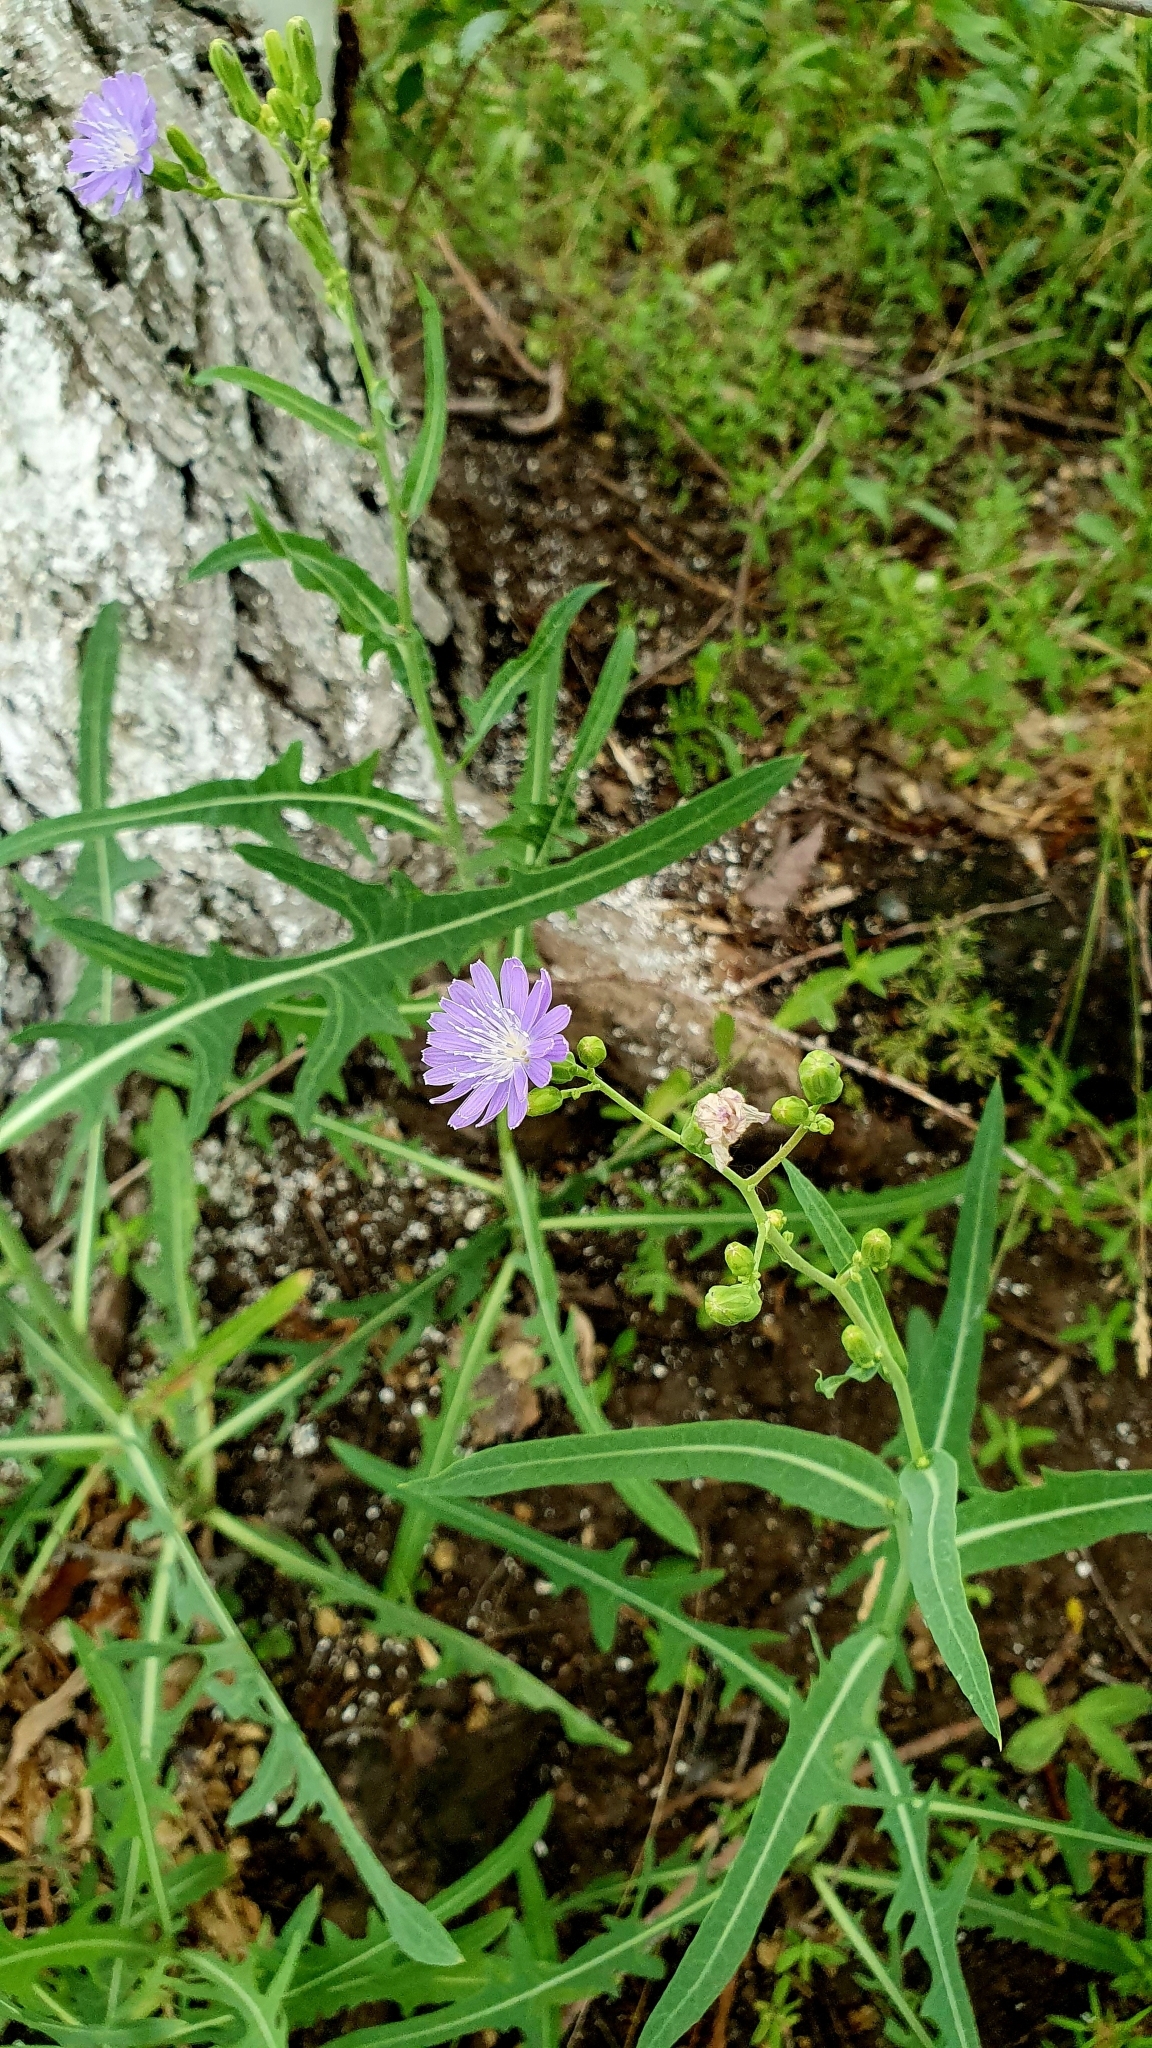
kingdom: Plantae
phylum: Tracheophyta
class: Magnoliopsida
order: Asterales
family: Asteraceae
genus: Lactuca
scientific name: Lactuca tatarica
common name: Blue lettuce
